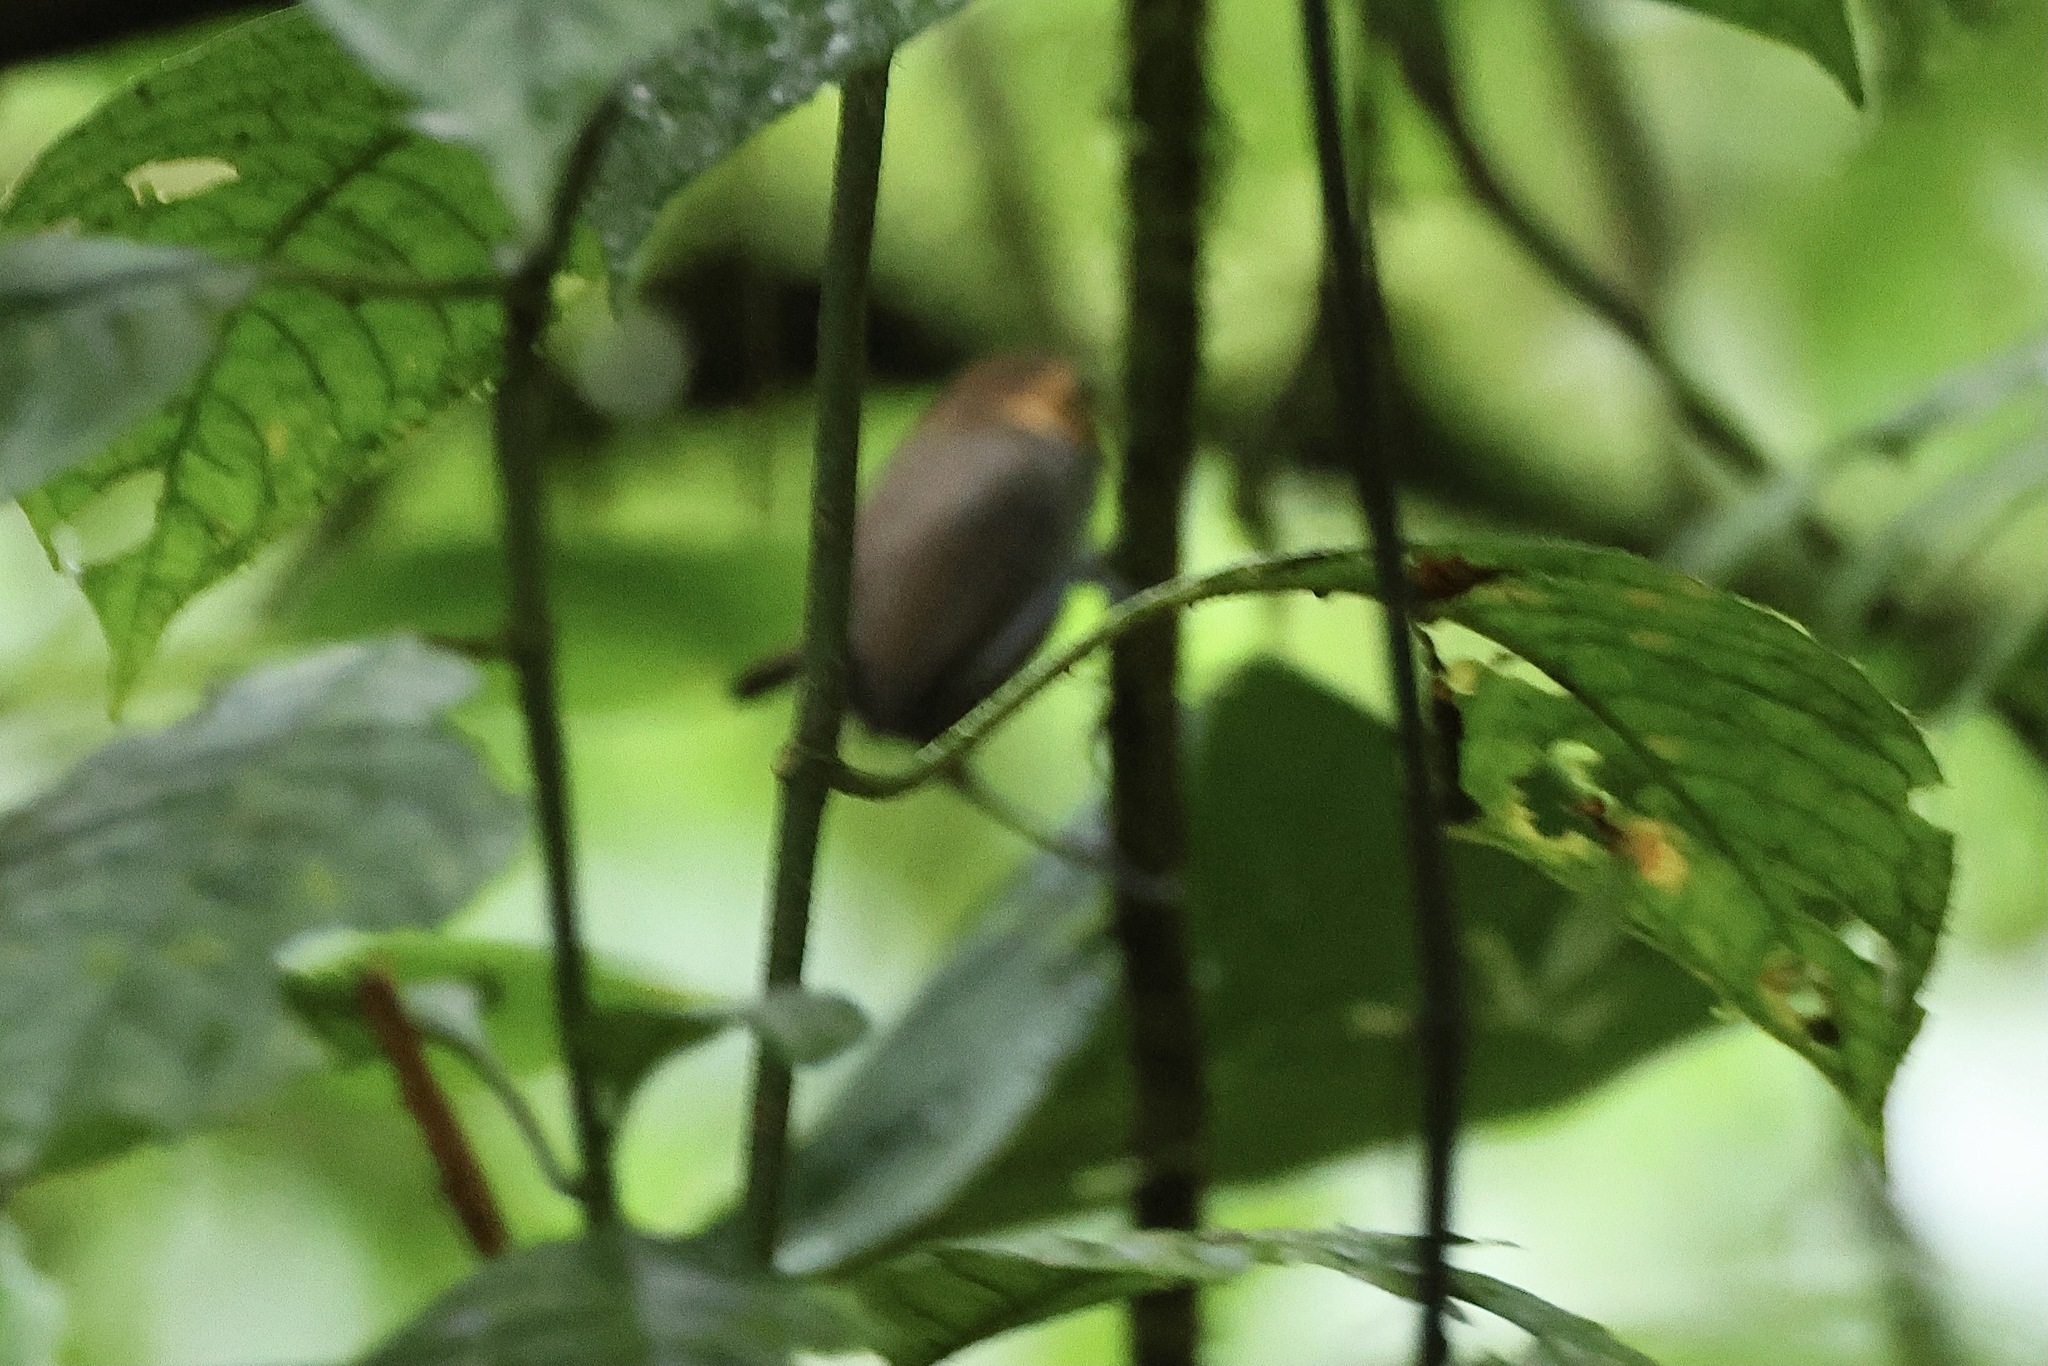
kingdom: Animalia
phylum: Chordata
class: Aves
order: Passeriformes
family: Polioptilidae
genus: Microbates
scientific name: Microbates cinereiventris
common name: Tawny-faced gnatwren
